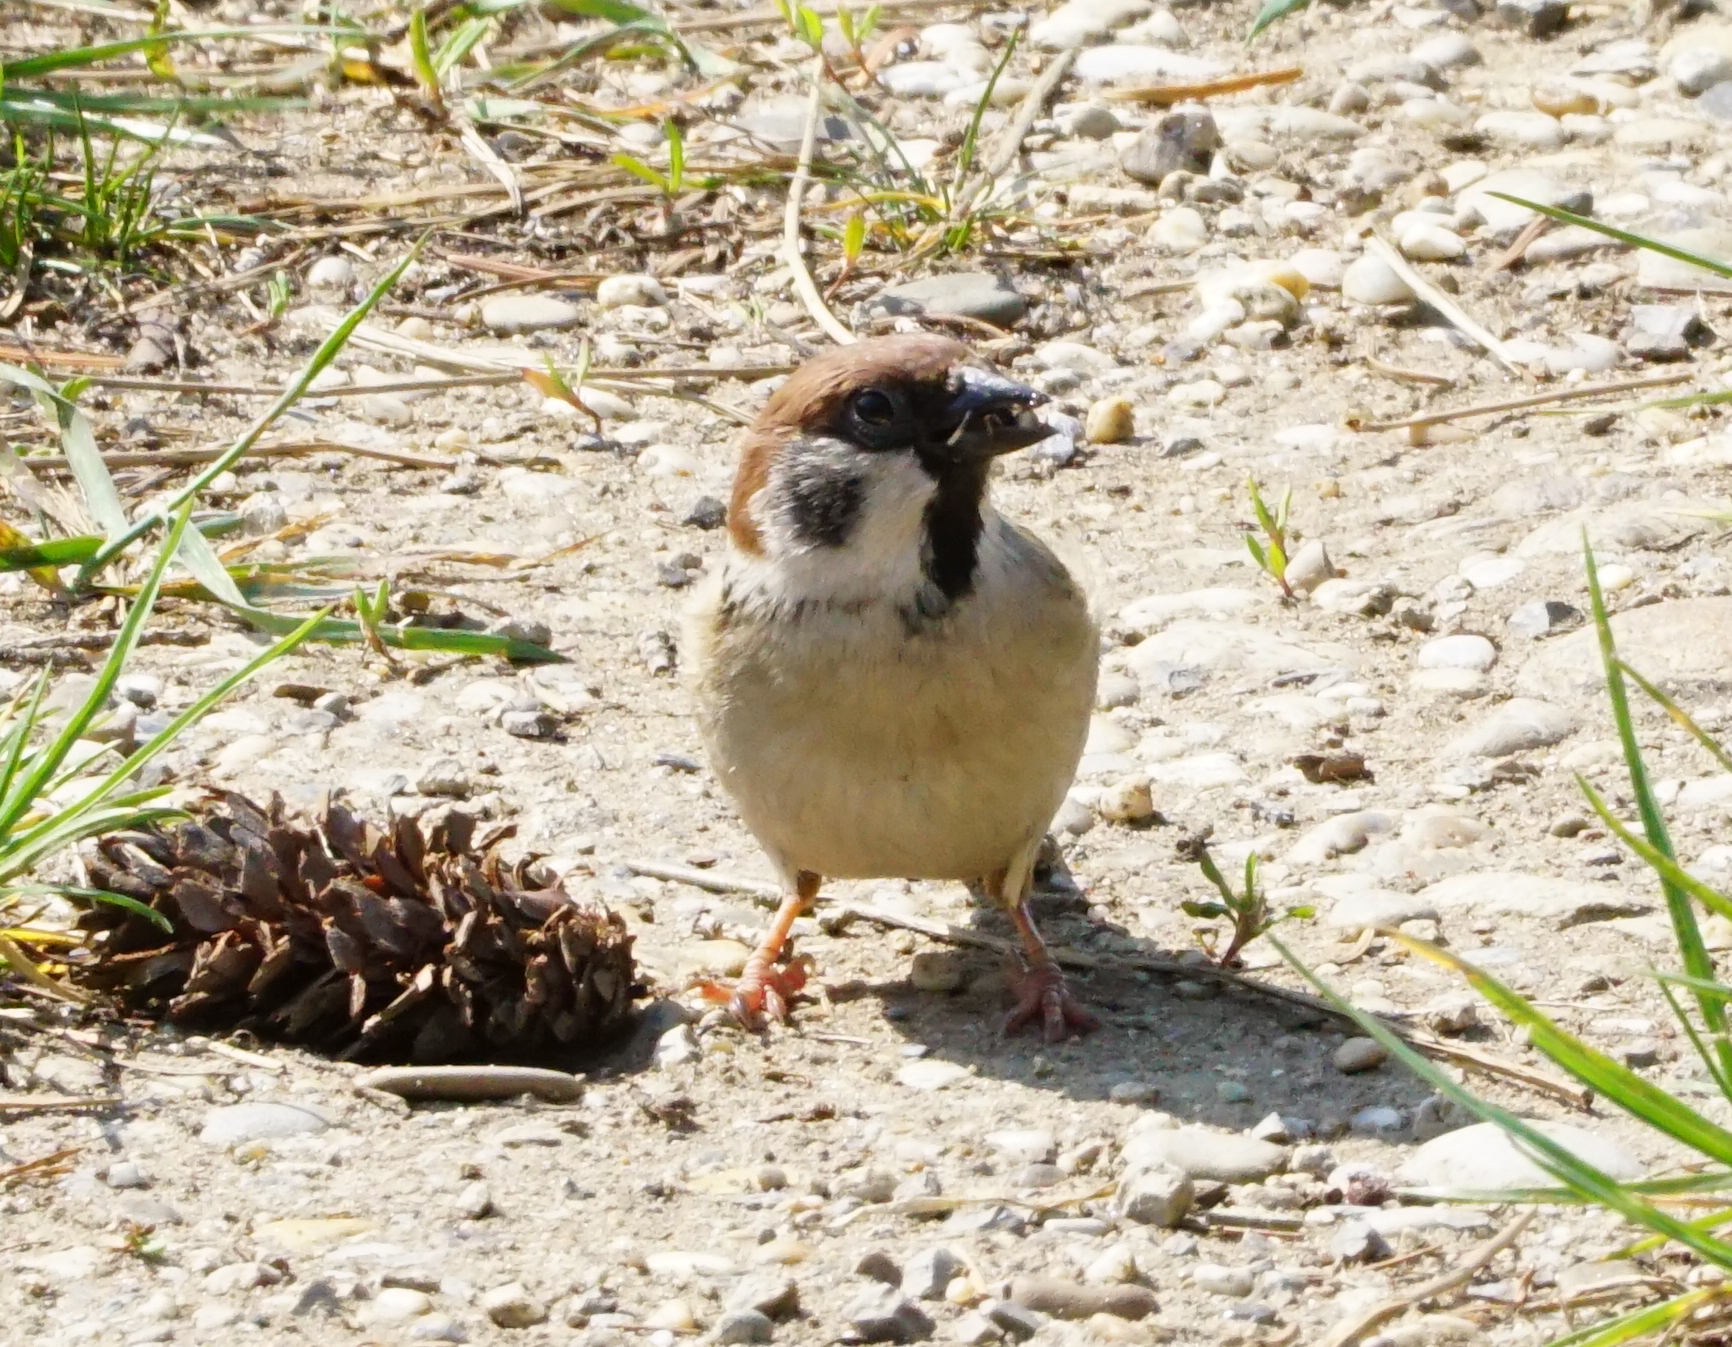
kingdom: Animalia
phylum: Chordata
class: Aves
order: Passeriformes
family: Passeridae
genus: Passer
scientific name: Passer montanus
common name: Eurasian tree sparrow
